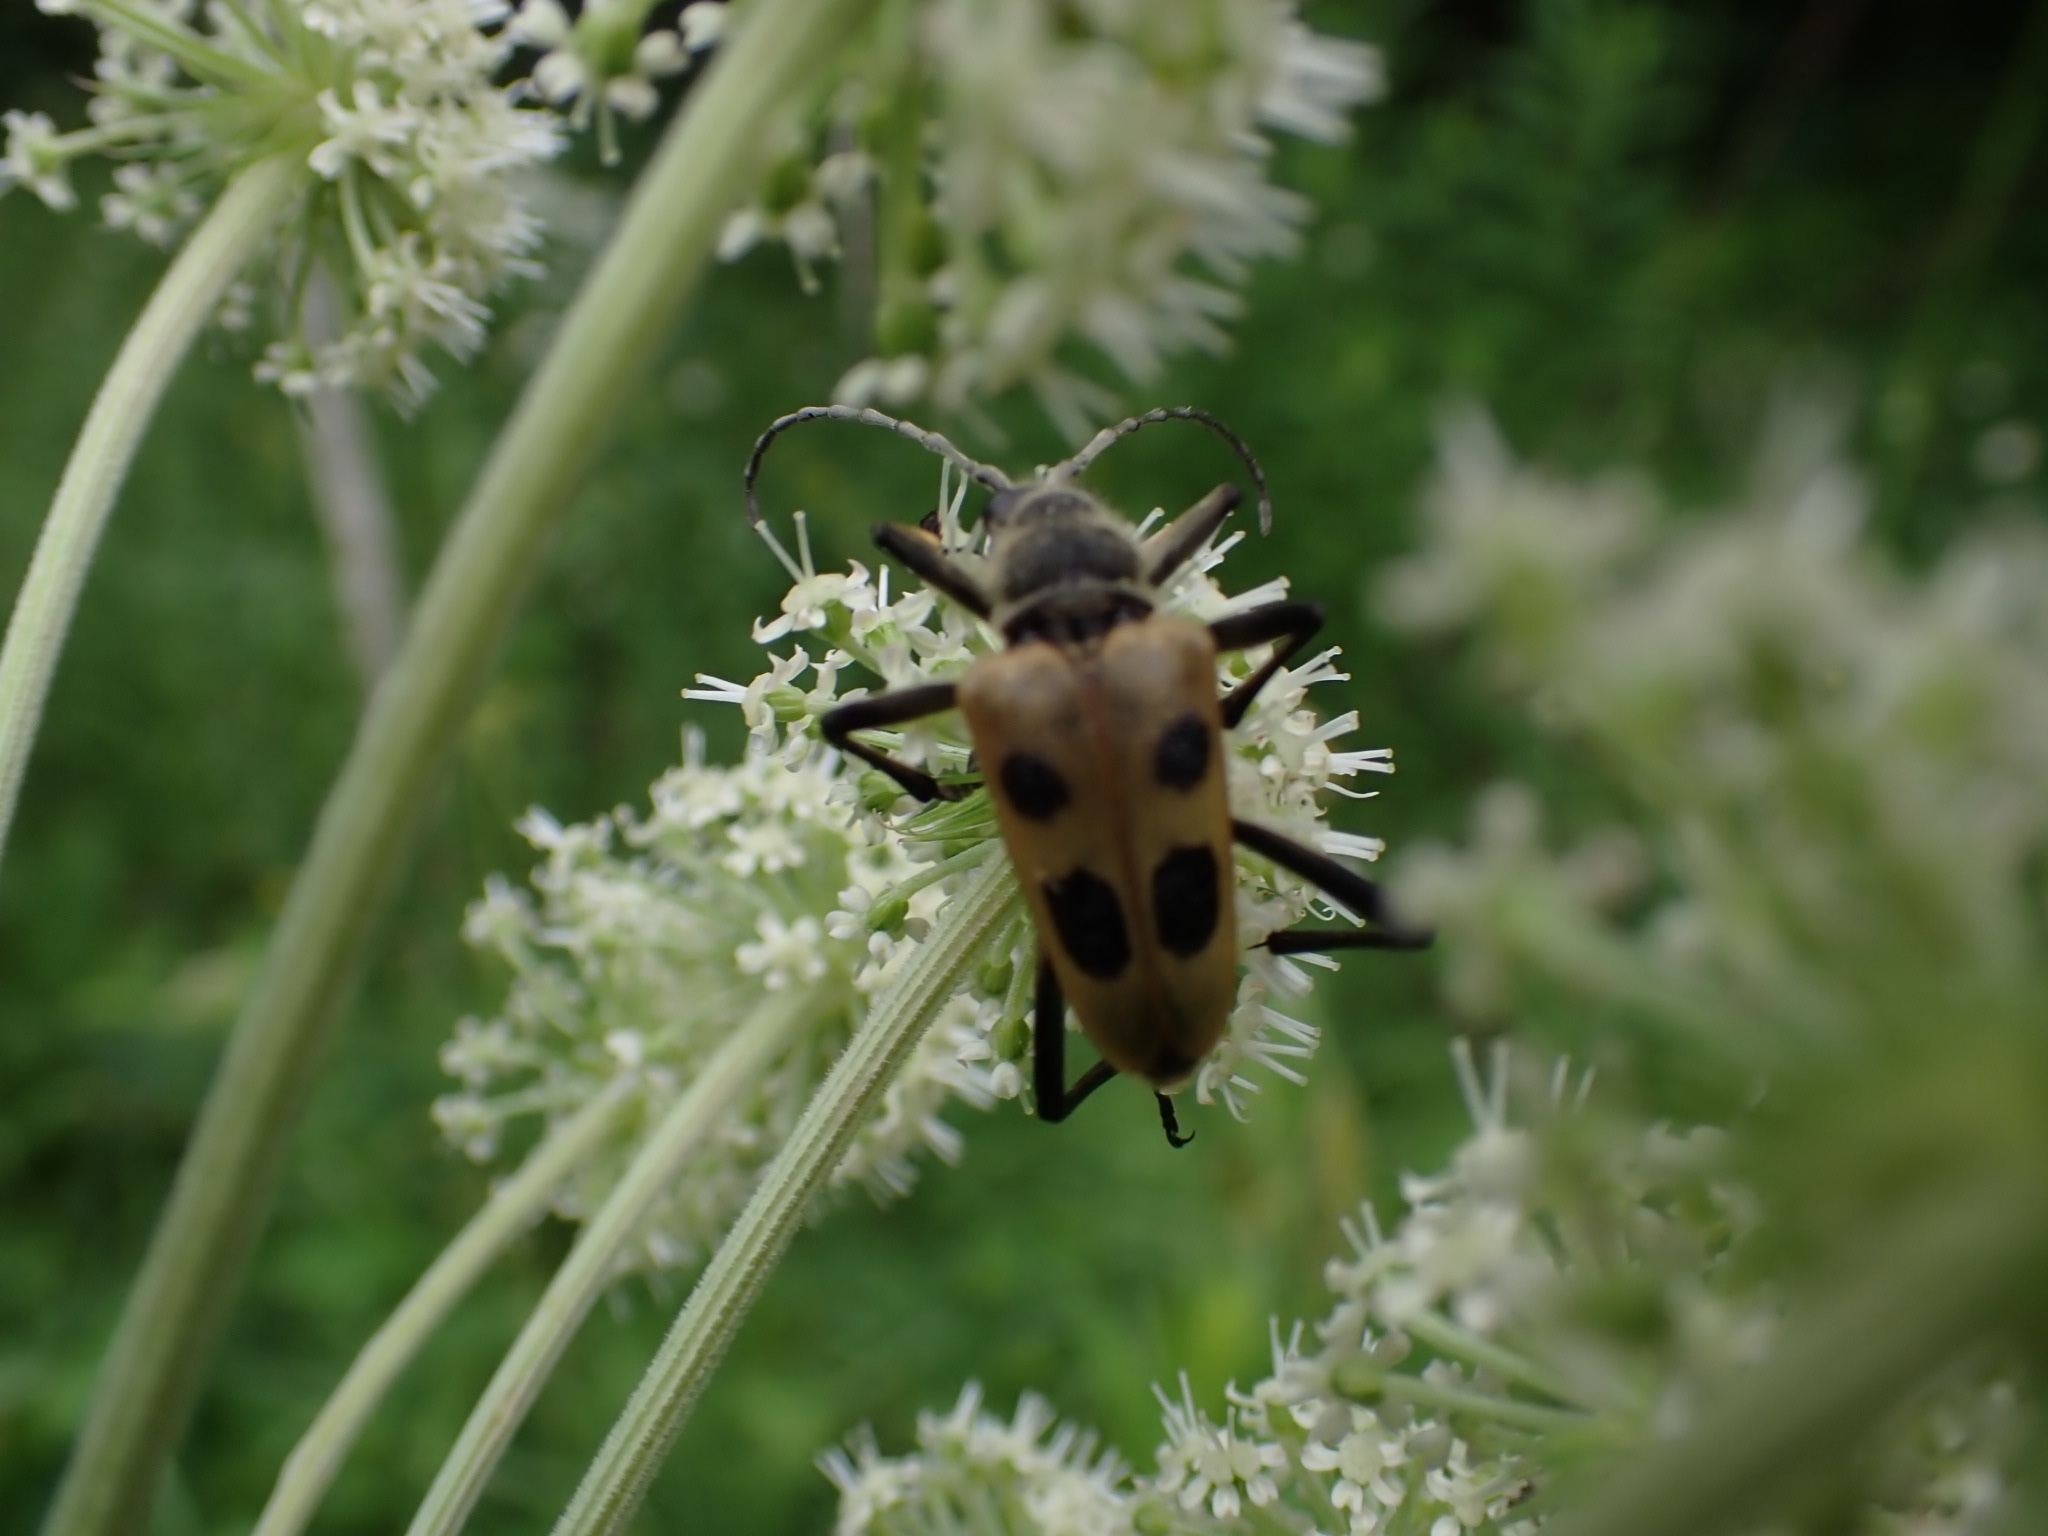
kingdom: Animalia
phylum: Arthropoda
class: Insecta
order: Coleoptera
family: Cerambycidae
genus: Pachyta
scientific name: Pachyta quadrimaculata
